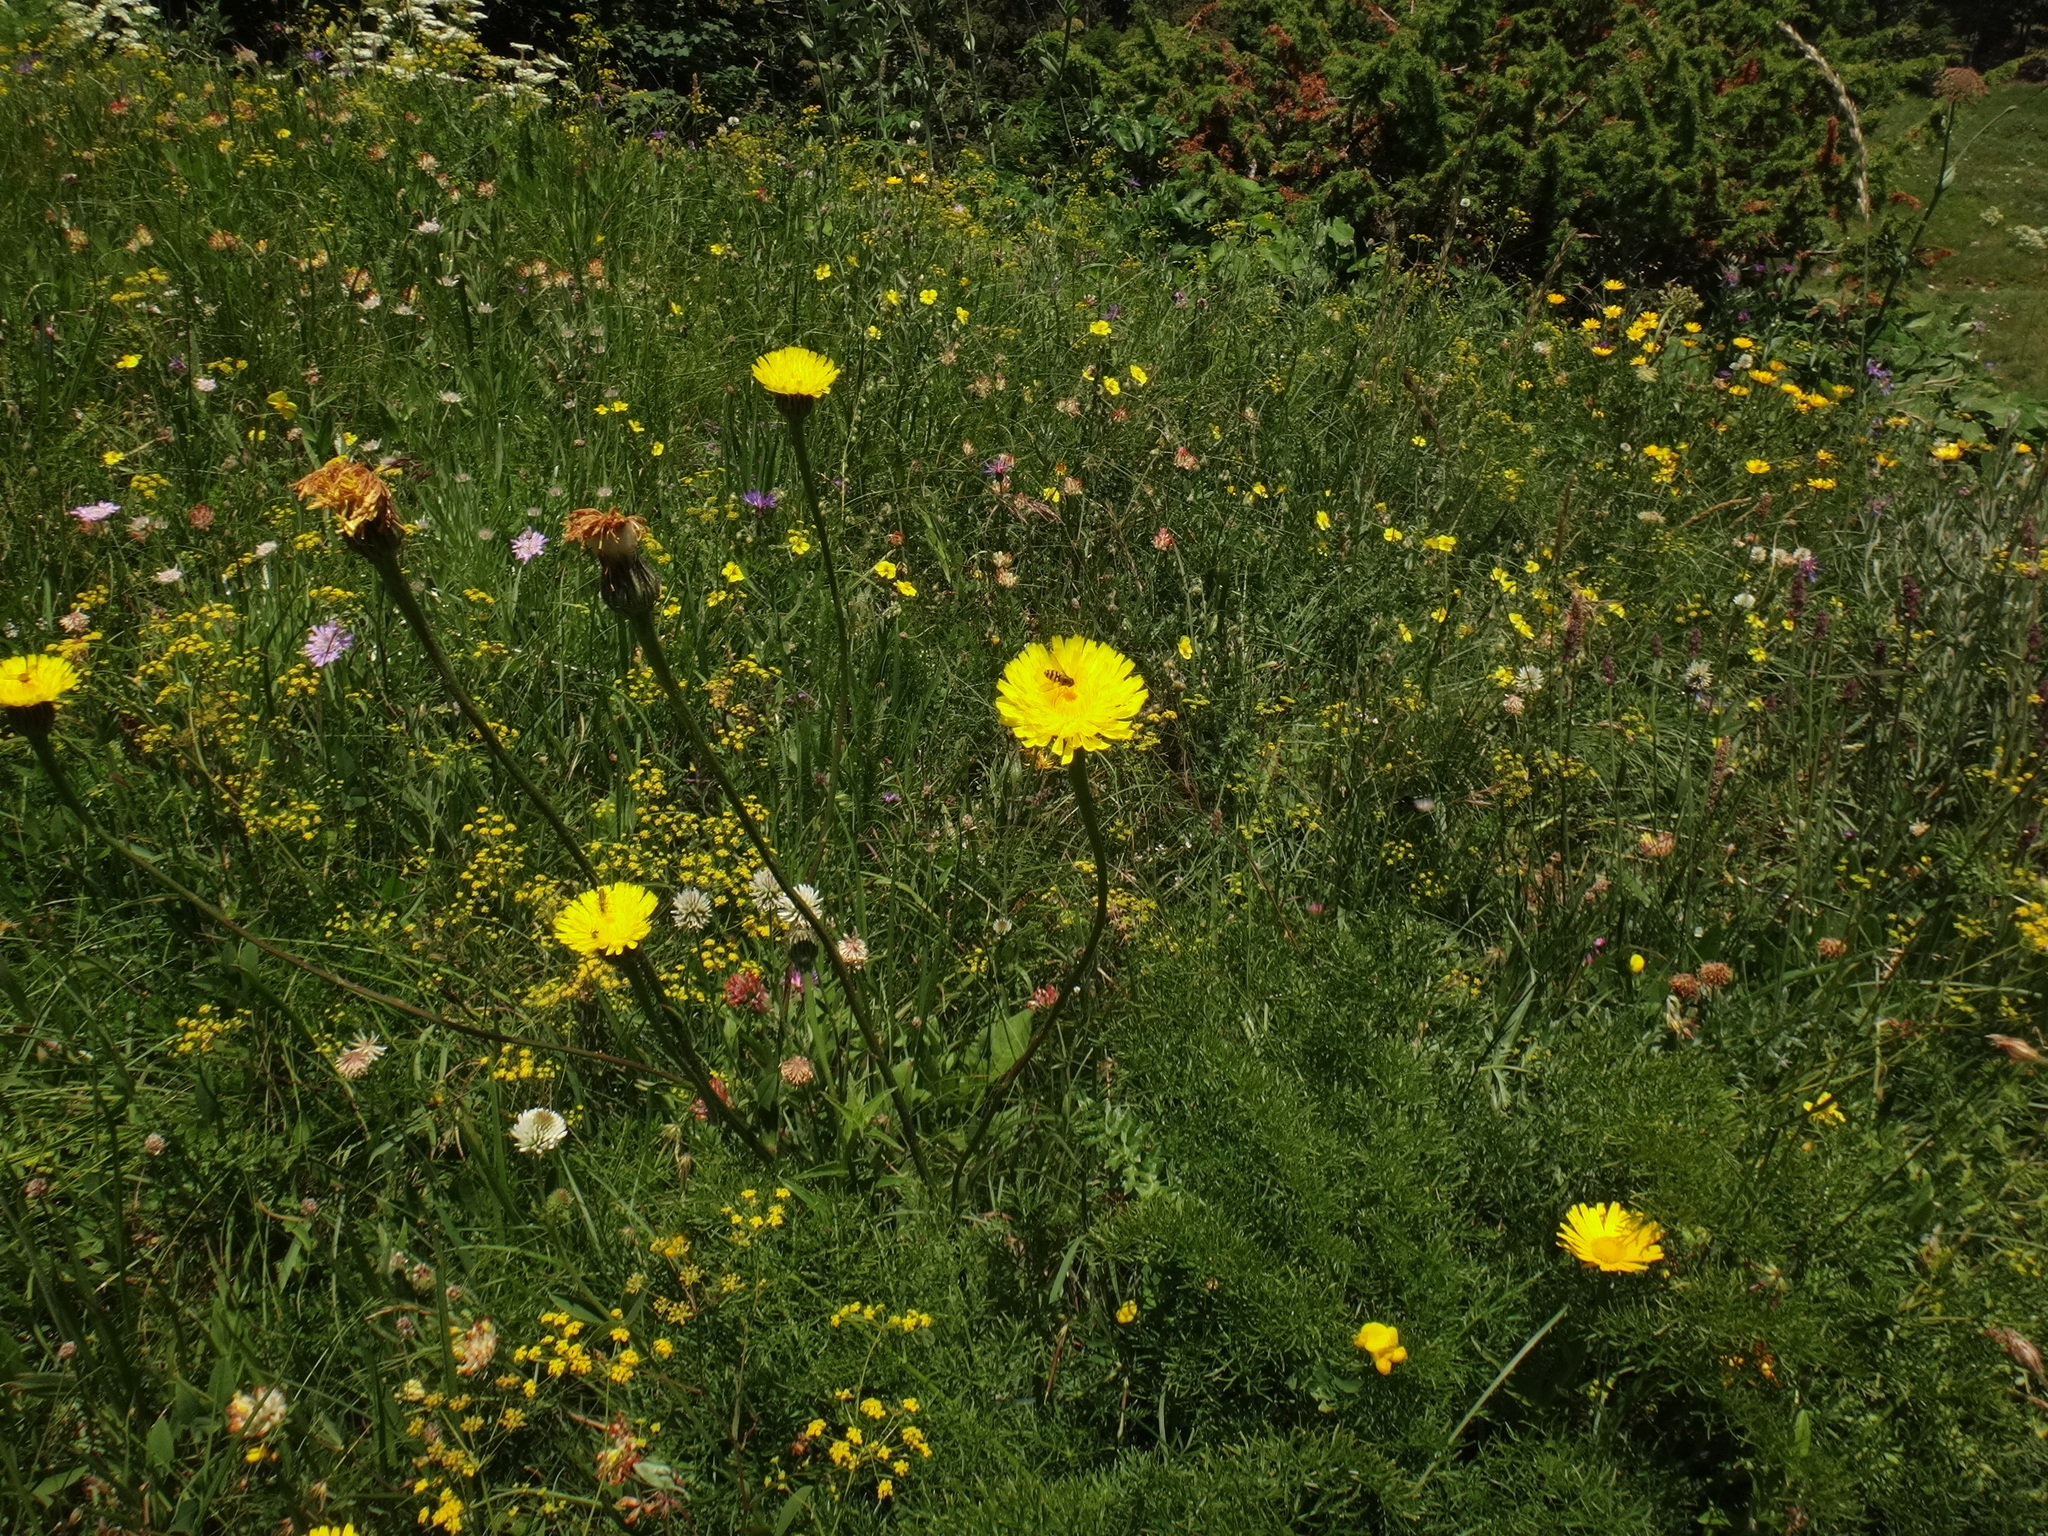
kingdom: Plantae
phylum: Tracheophyta
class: Magnoliopsida
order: Asterales
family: Asteraceae
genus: Trommsdorffia
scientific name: Trommsdorffia maculata
